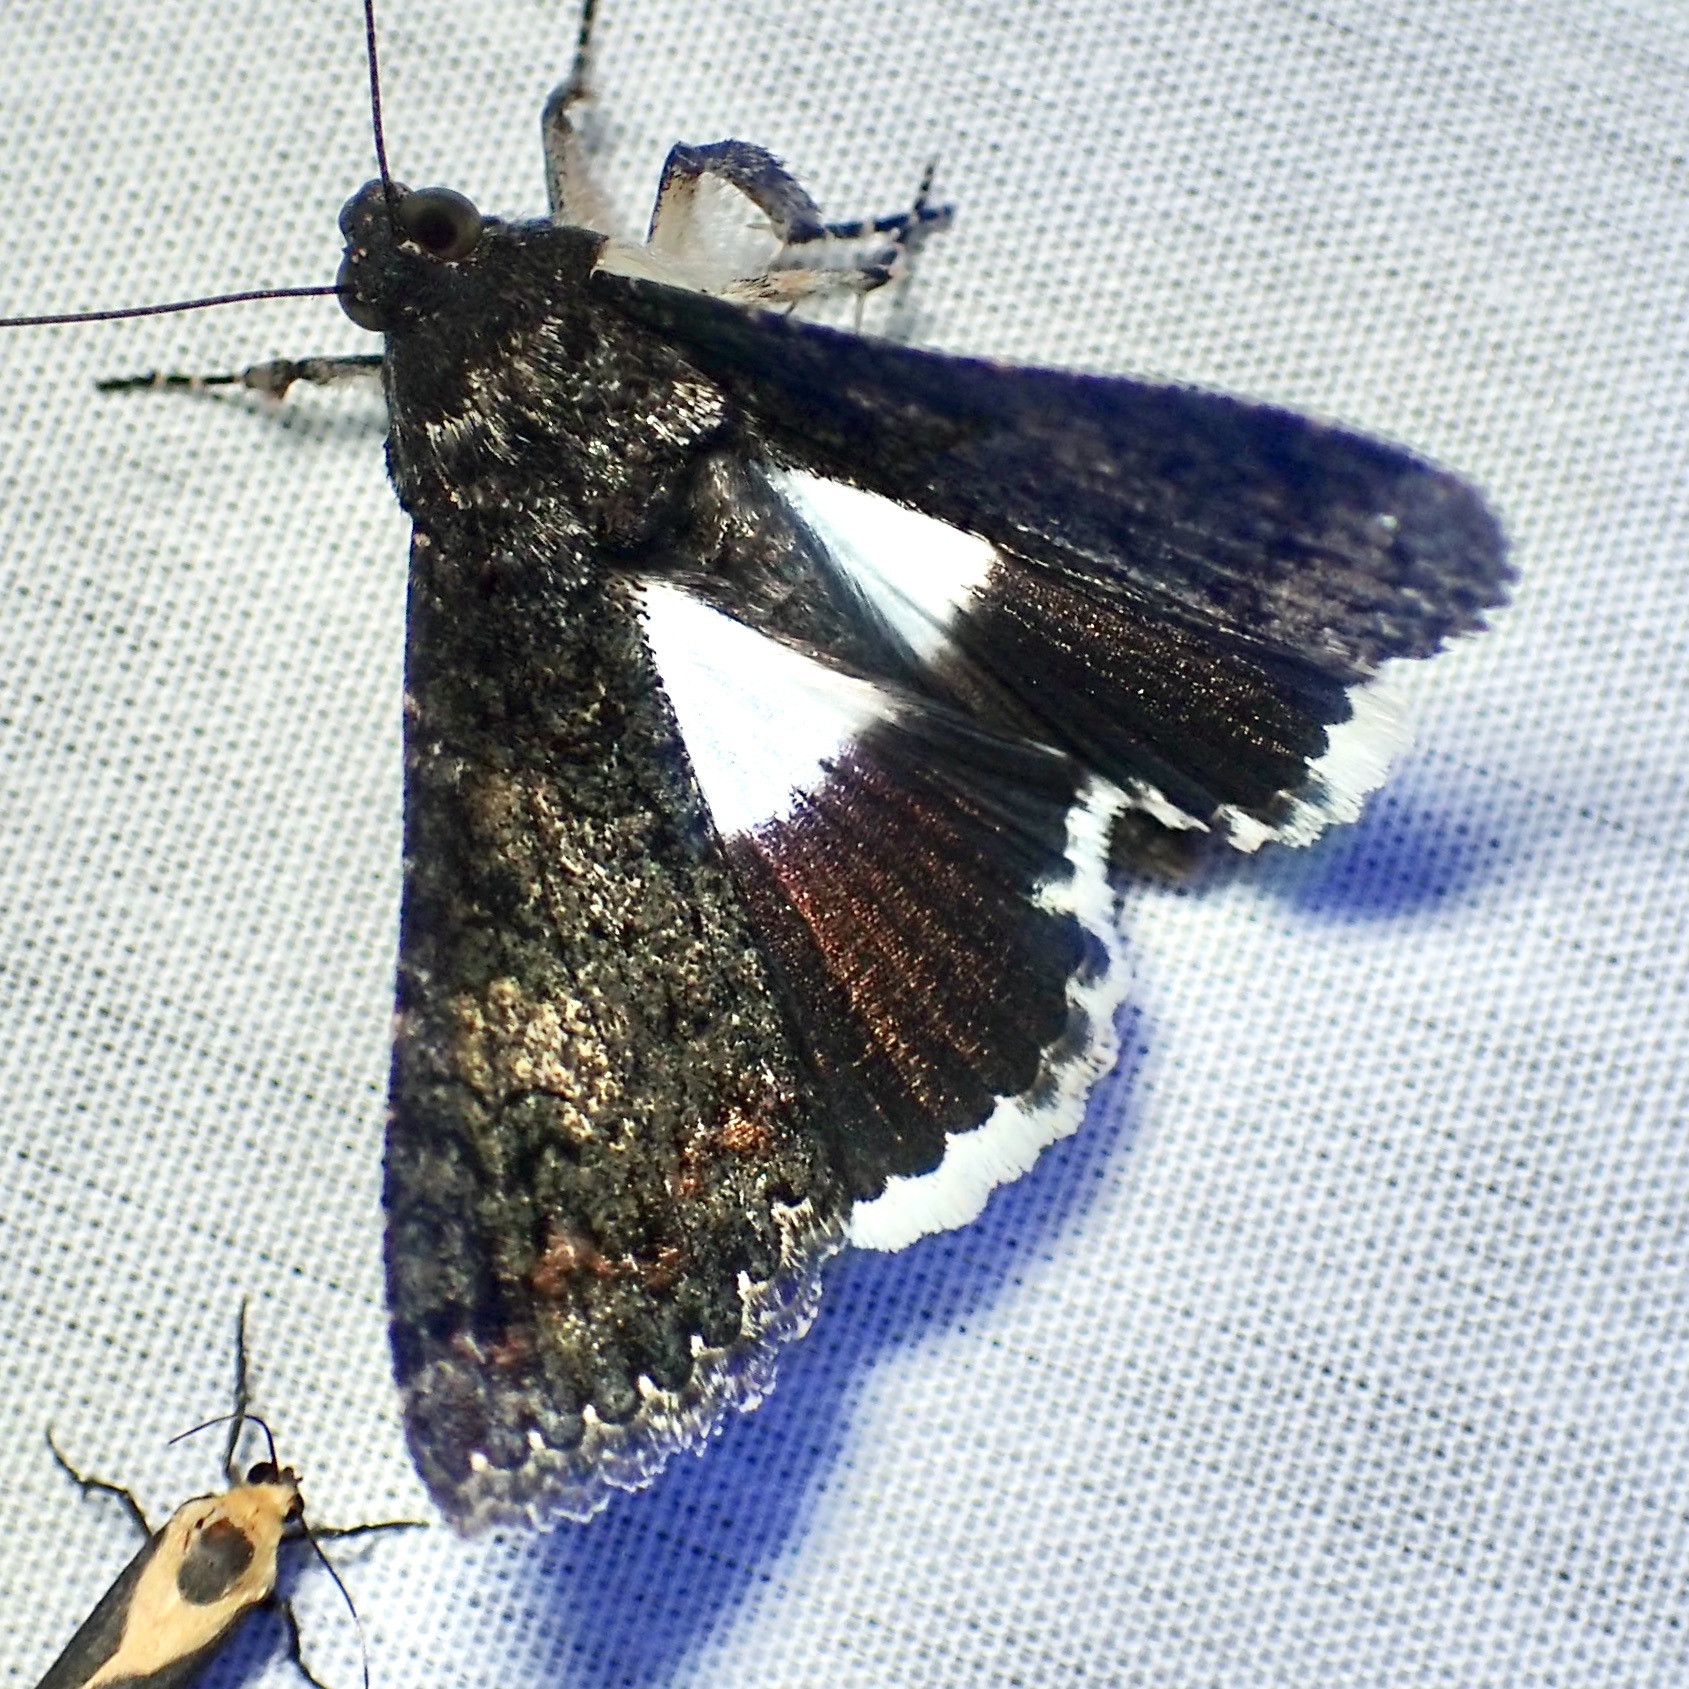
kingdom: Animalia
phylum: Arthropoda
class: Insecta
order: Lepidoptera
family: Erebidae
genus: Melipotis
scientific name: Melipotis punctifinis
